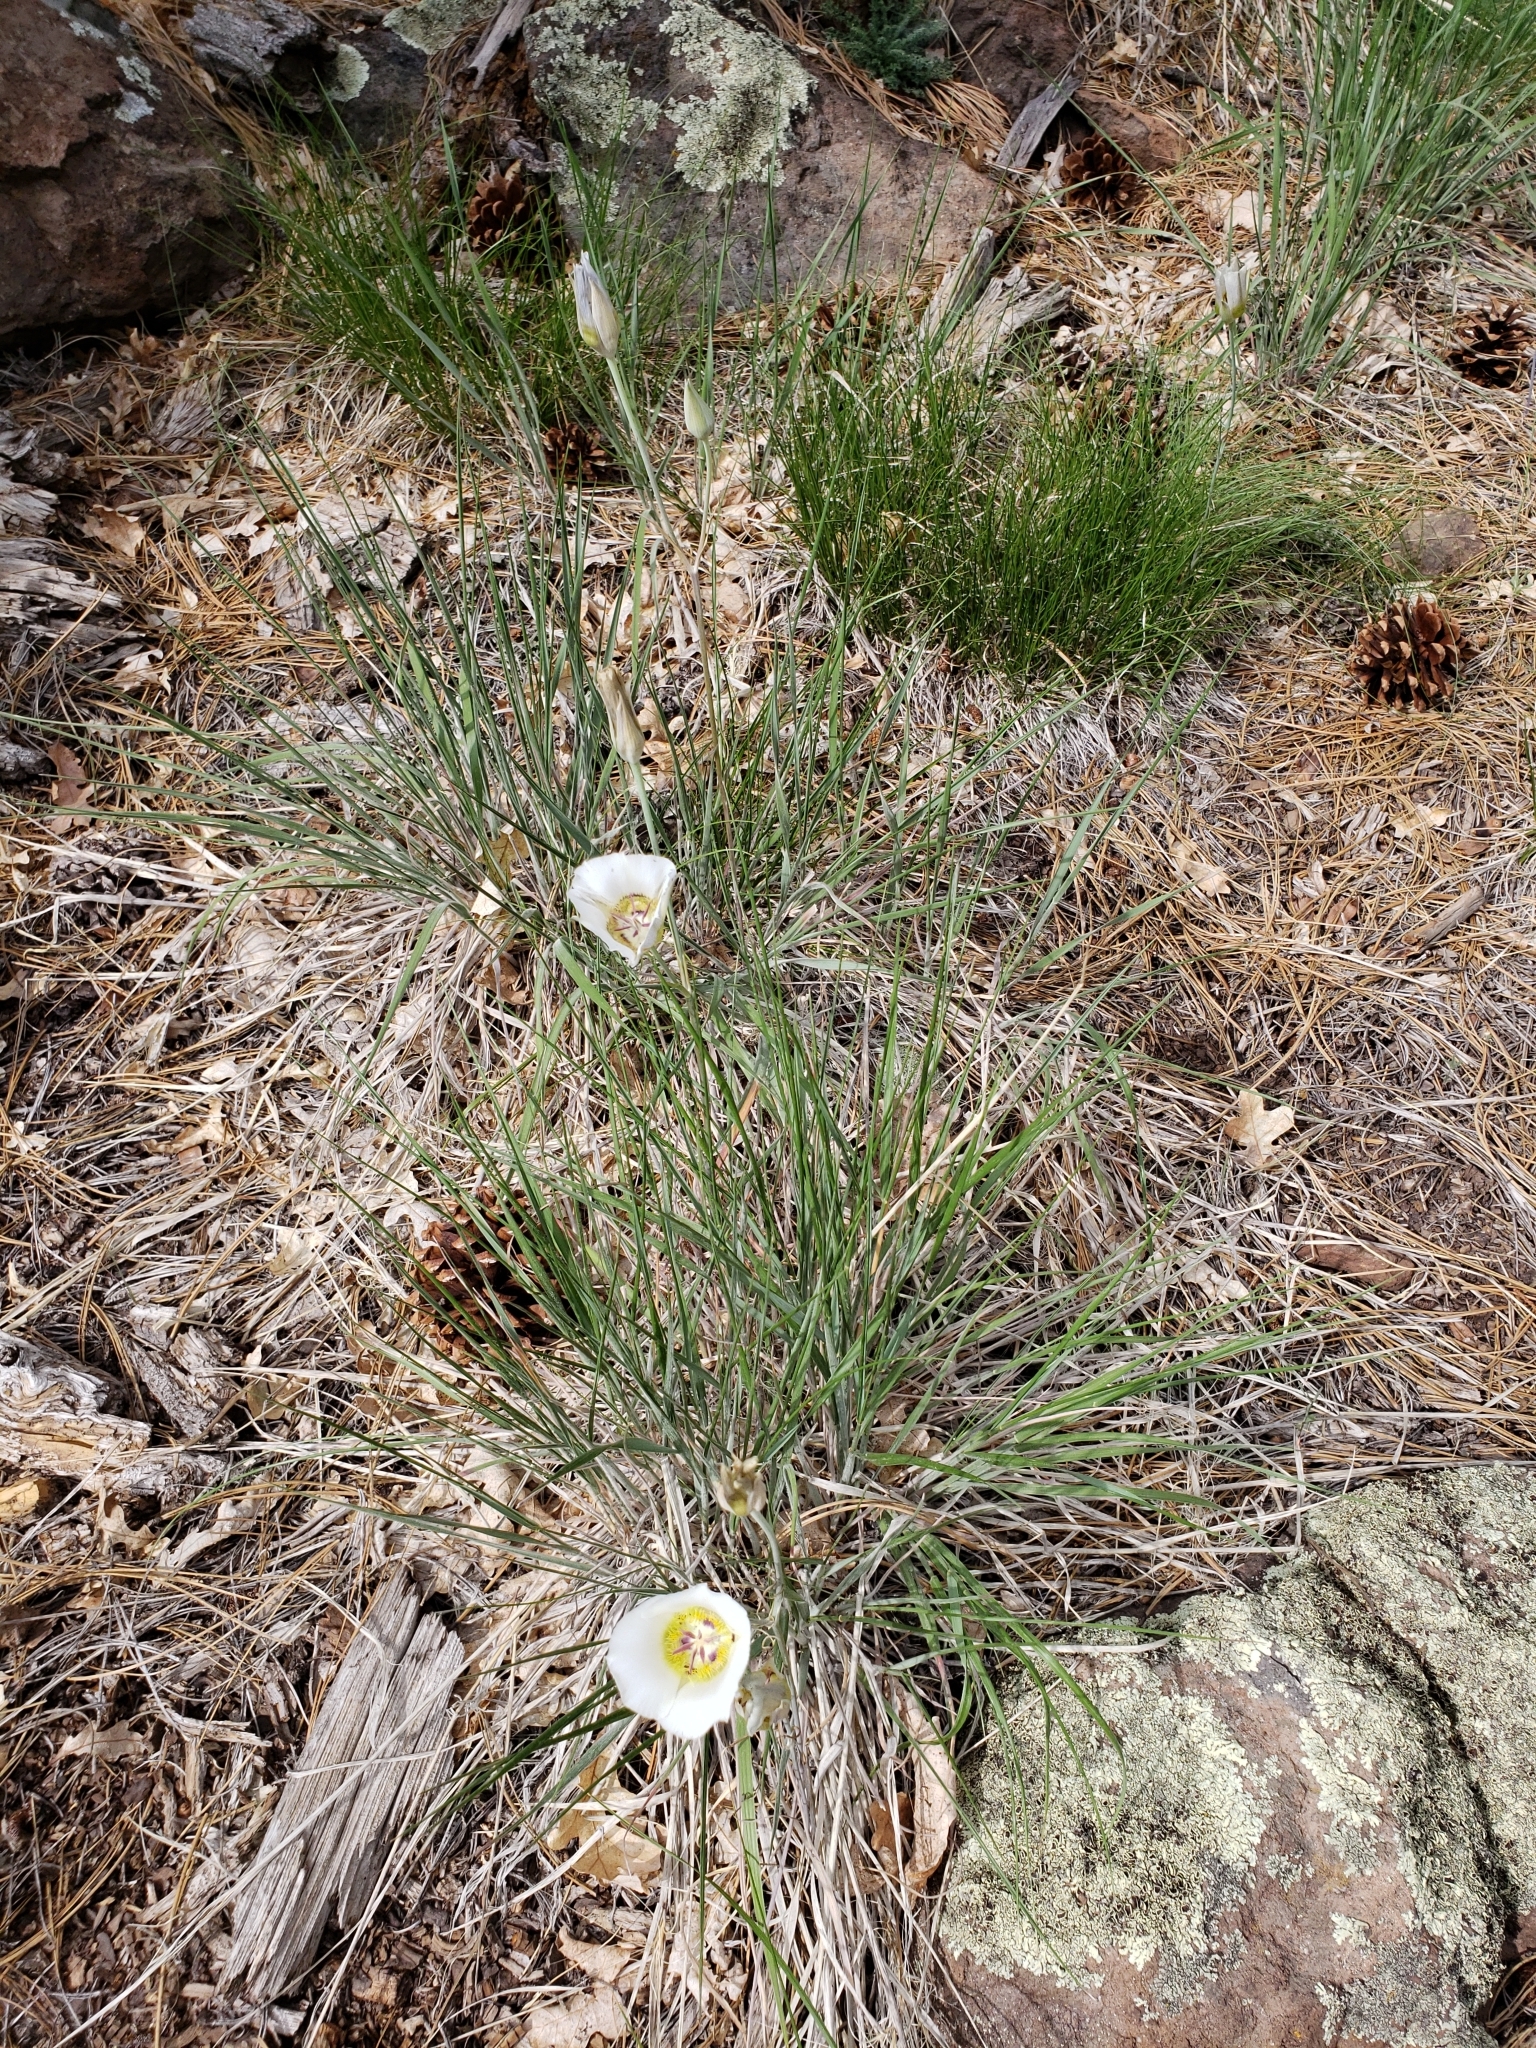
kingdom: Plantae
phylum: Tracheophyta
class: Liliopsida
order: Liliales
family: Liliaceae
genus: Calochortus
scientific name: Calochortus ambiguus
